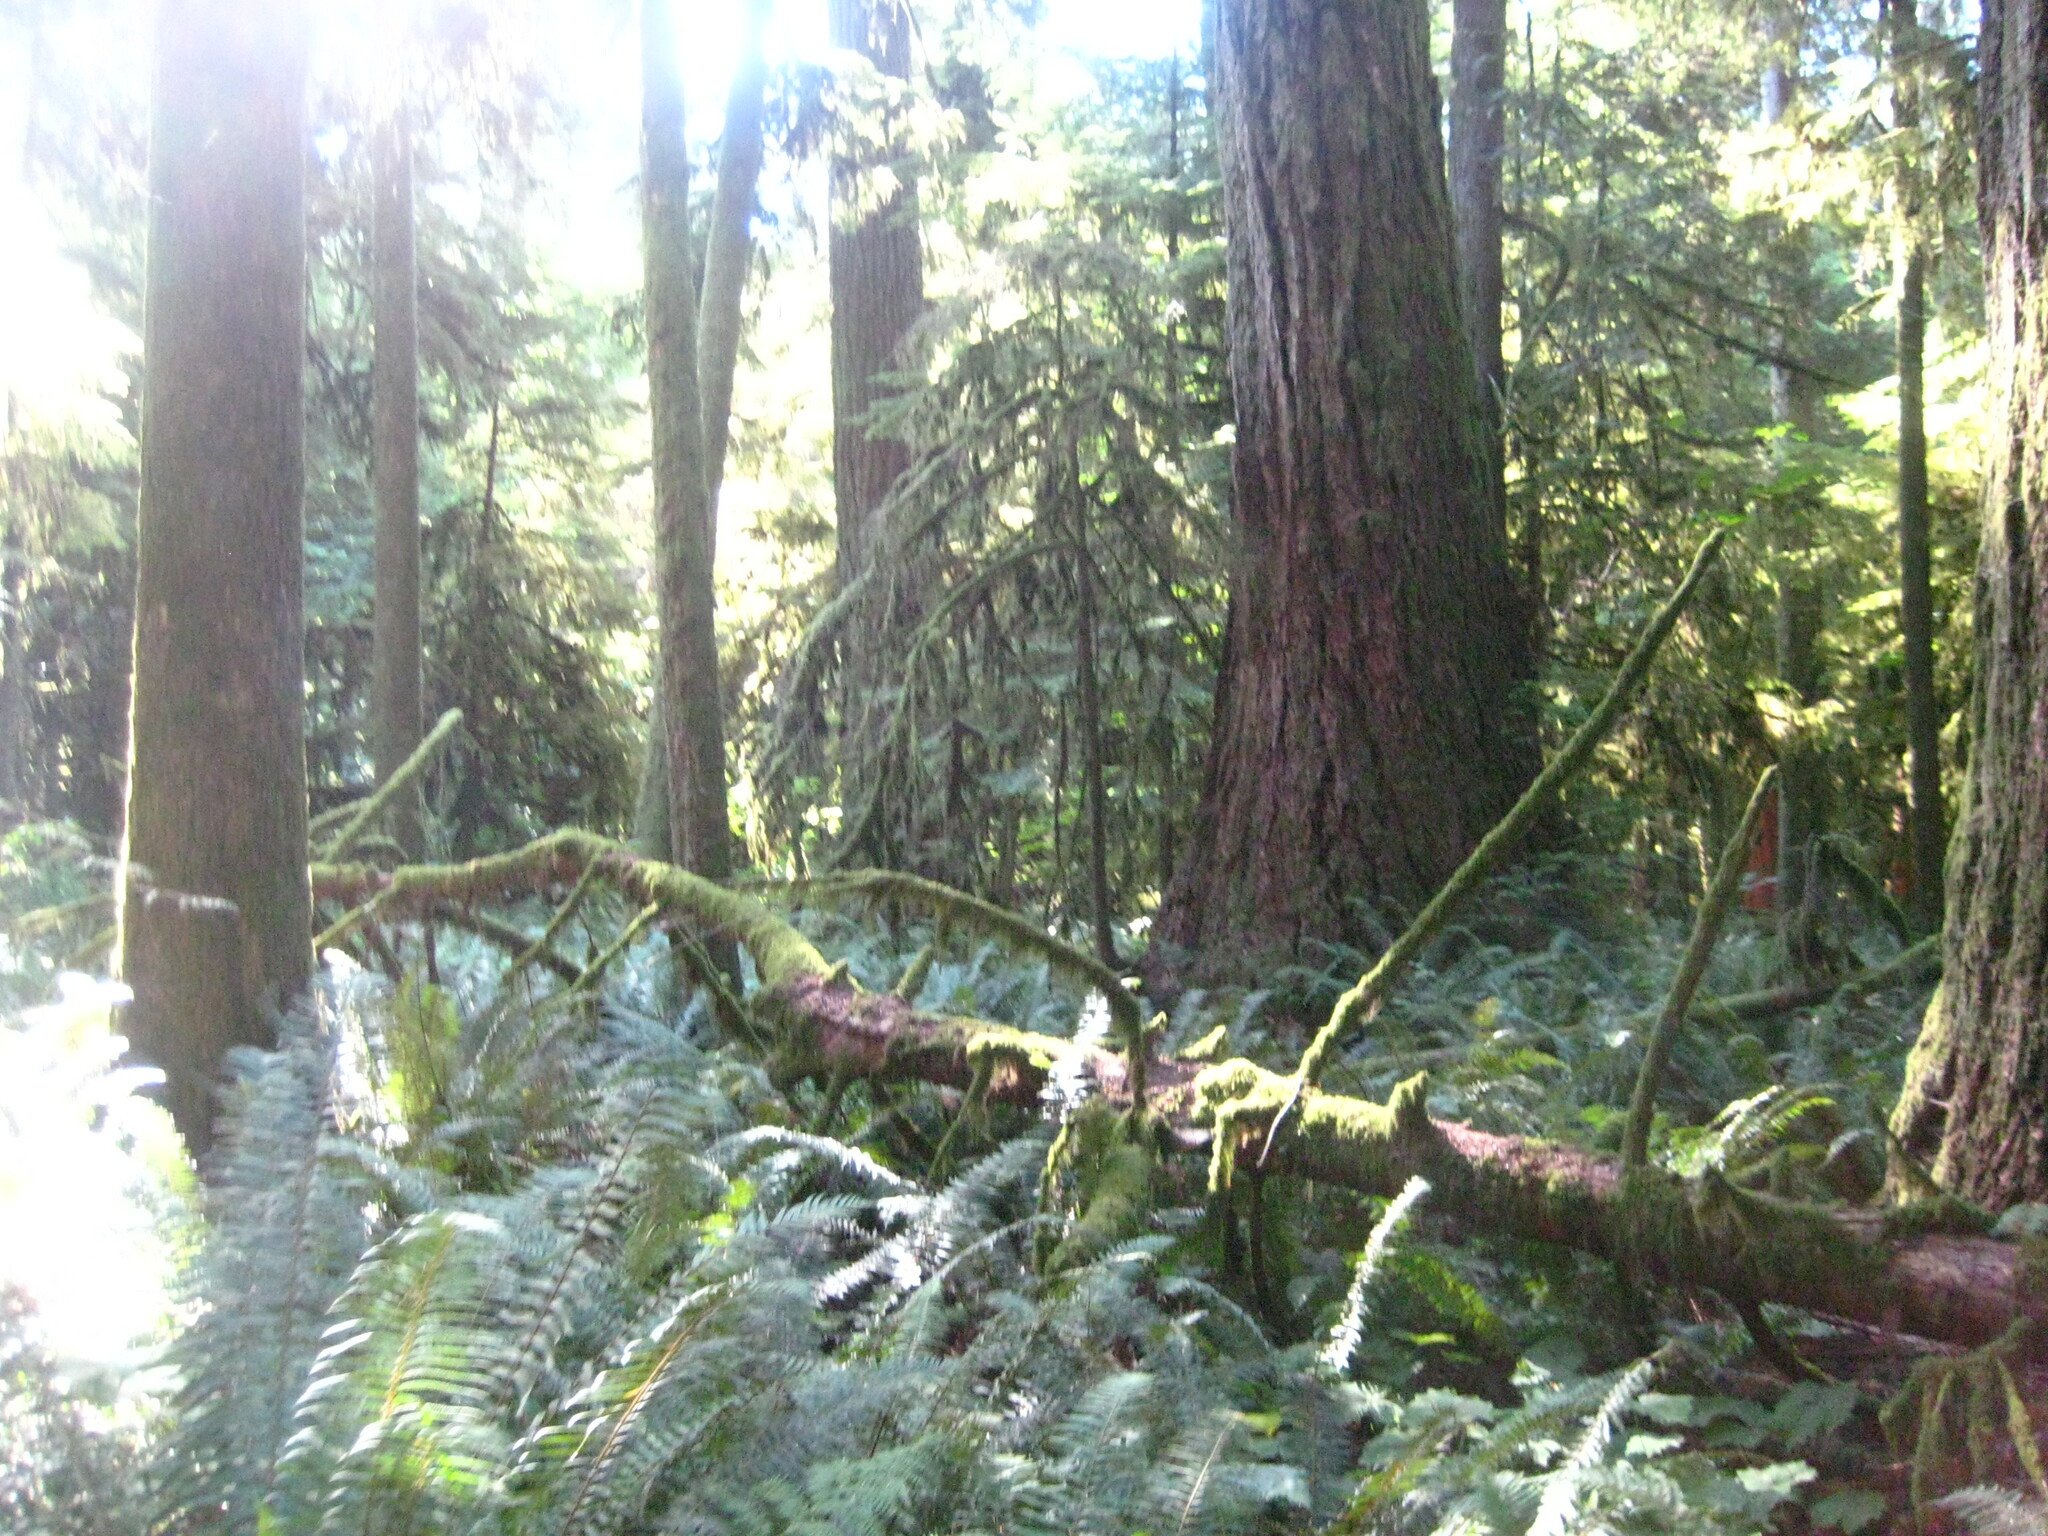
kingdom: Plantae
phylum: Tracheophyta
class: Polypodiopsida
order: Polypodiales
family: Dryopteridaceae
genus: Polystichum
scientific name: Polystichum munitum
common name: Western sword-fern
